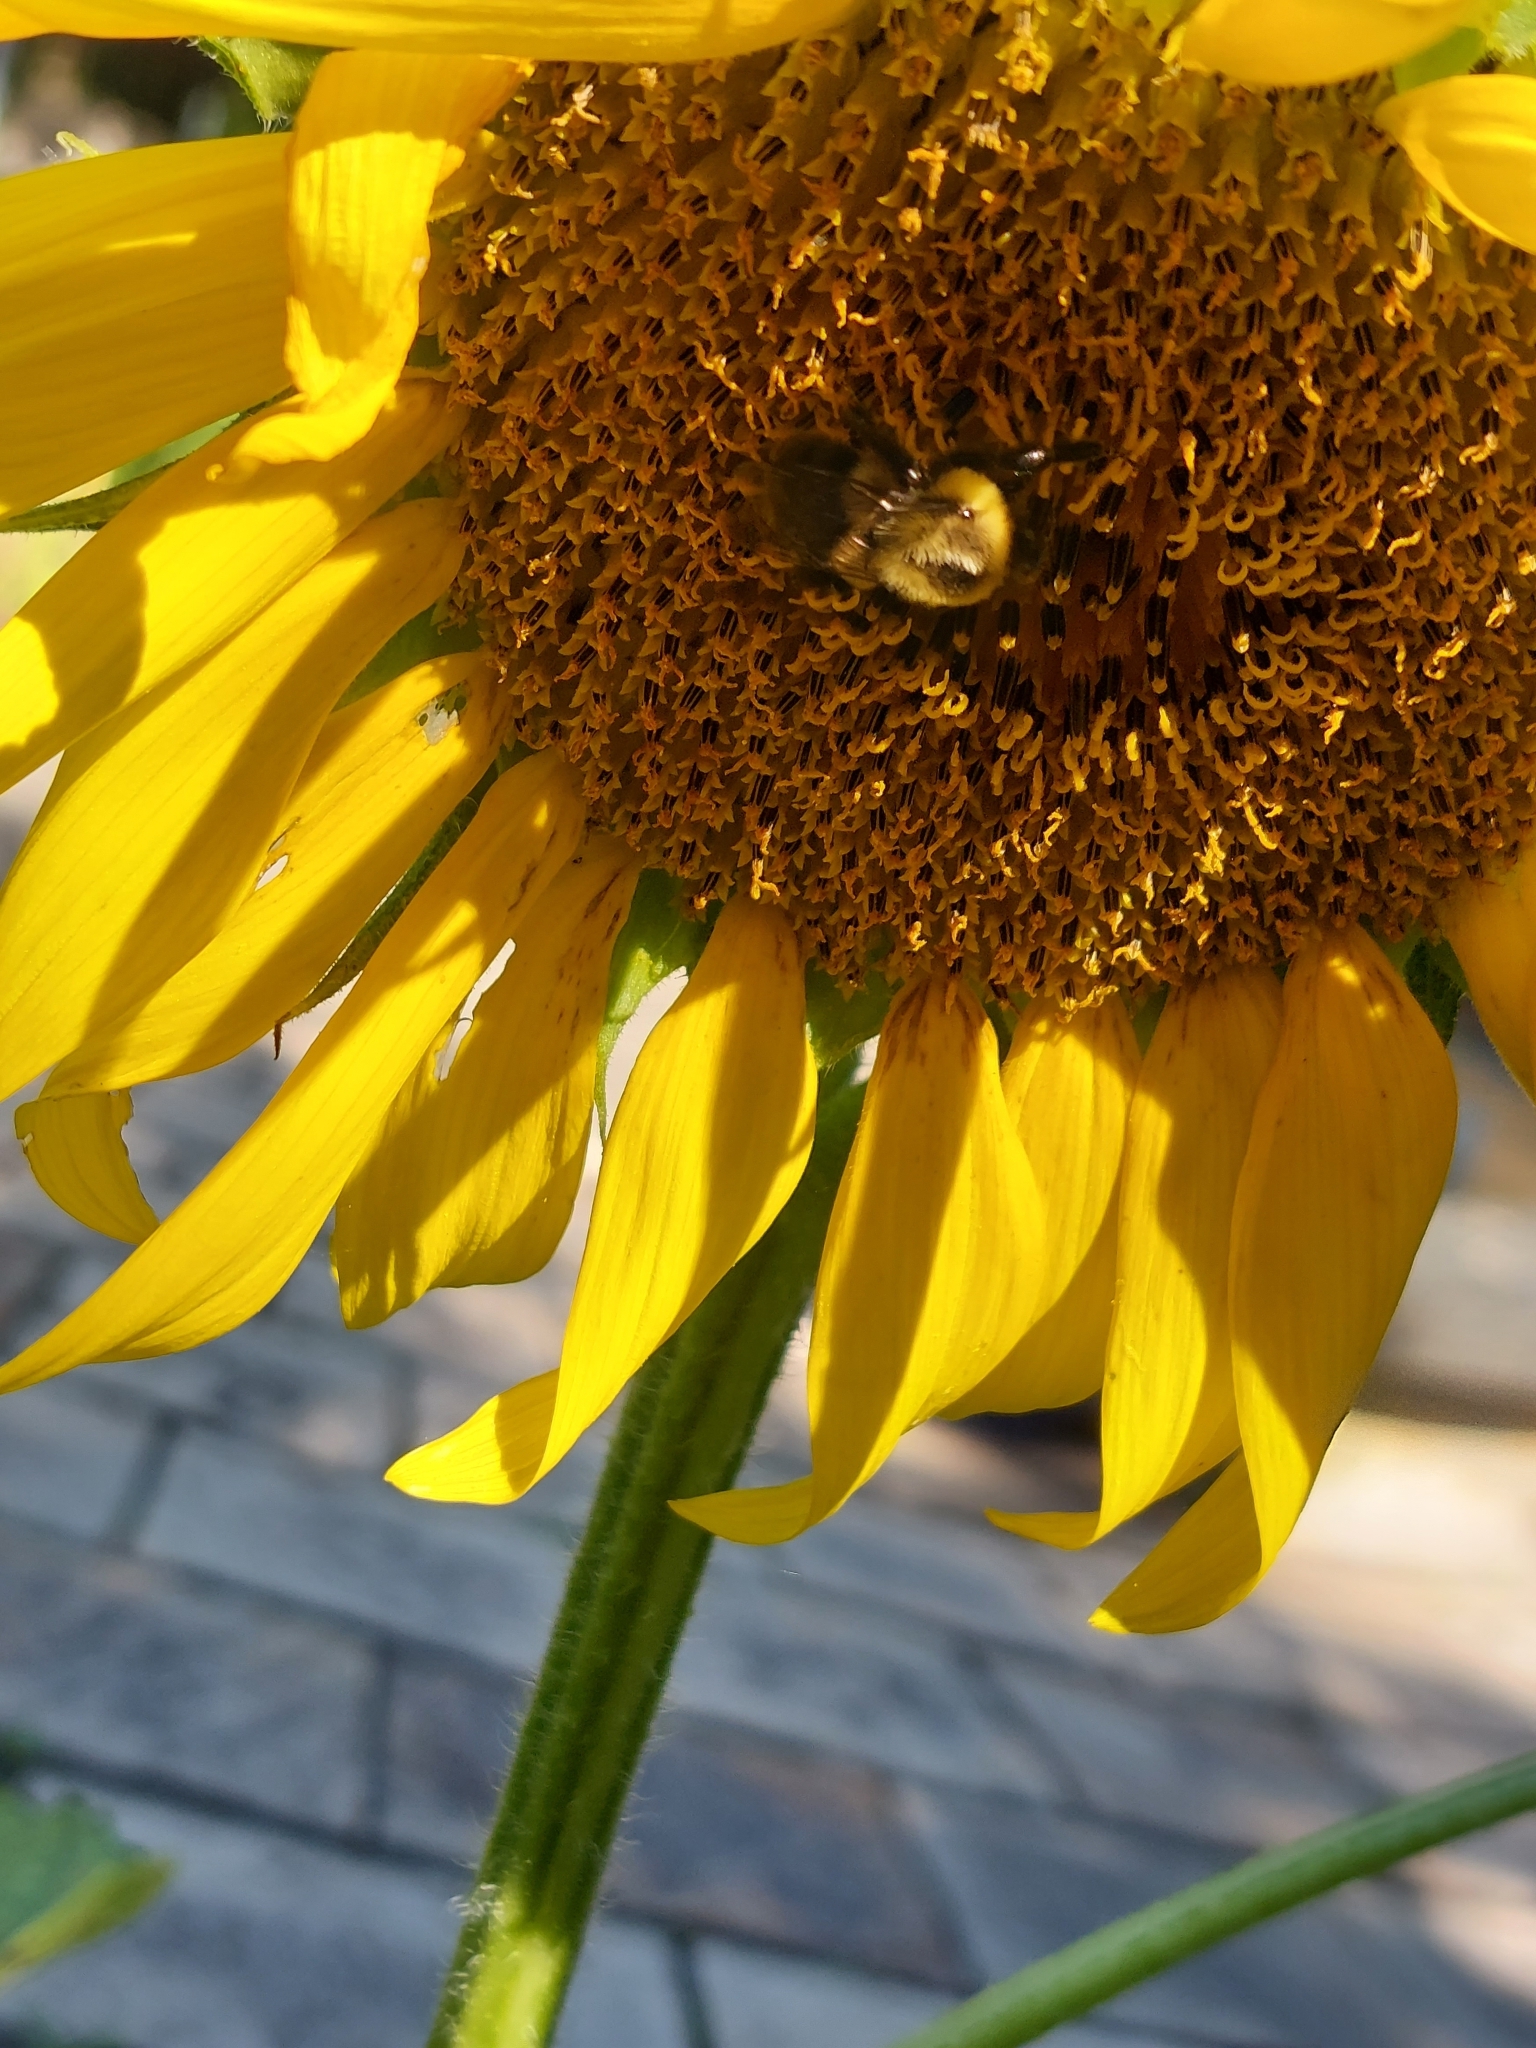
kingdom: Animalia
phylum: Arthropoda
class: Insecta
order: Hymenoptera
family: Apidae
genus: Bombus
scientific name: Bombus impatiens
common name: Common eastern bumble bee
